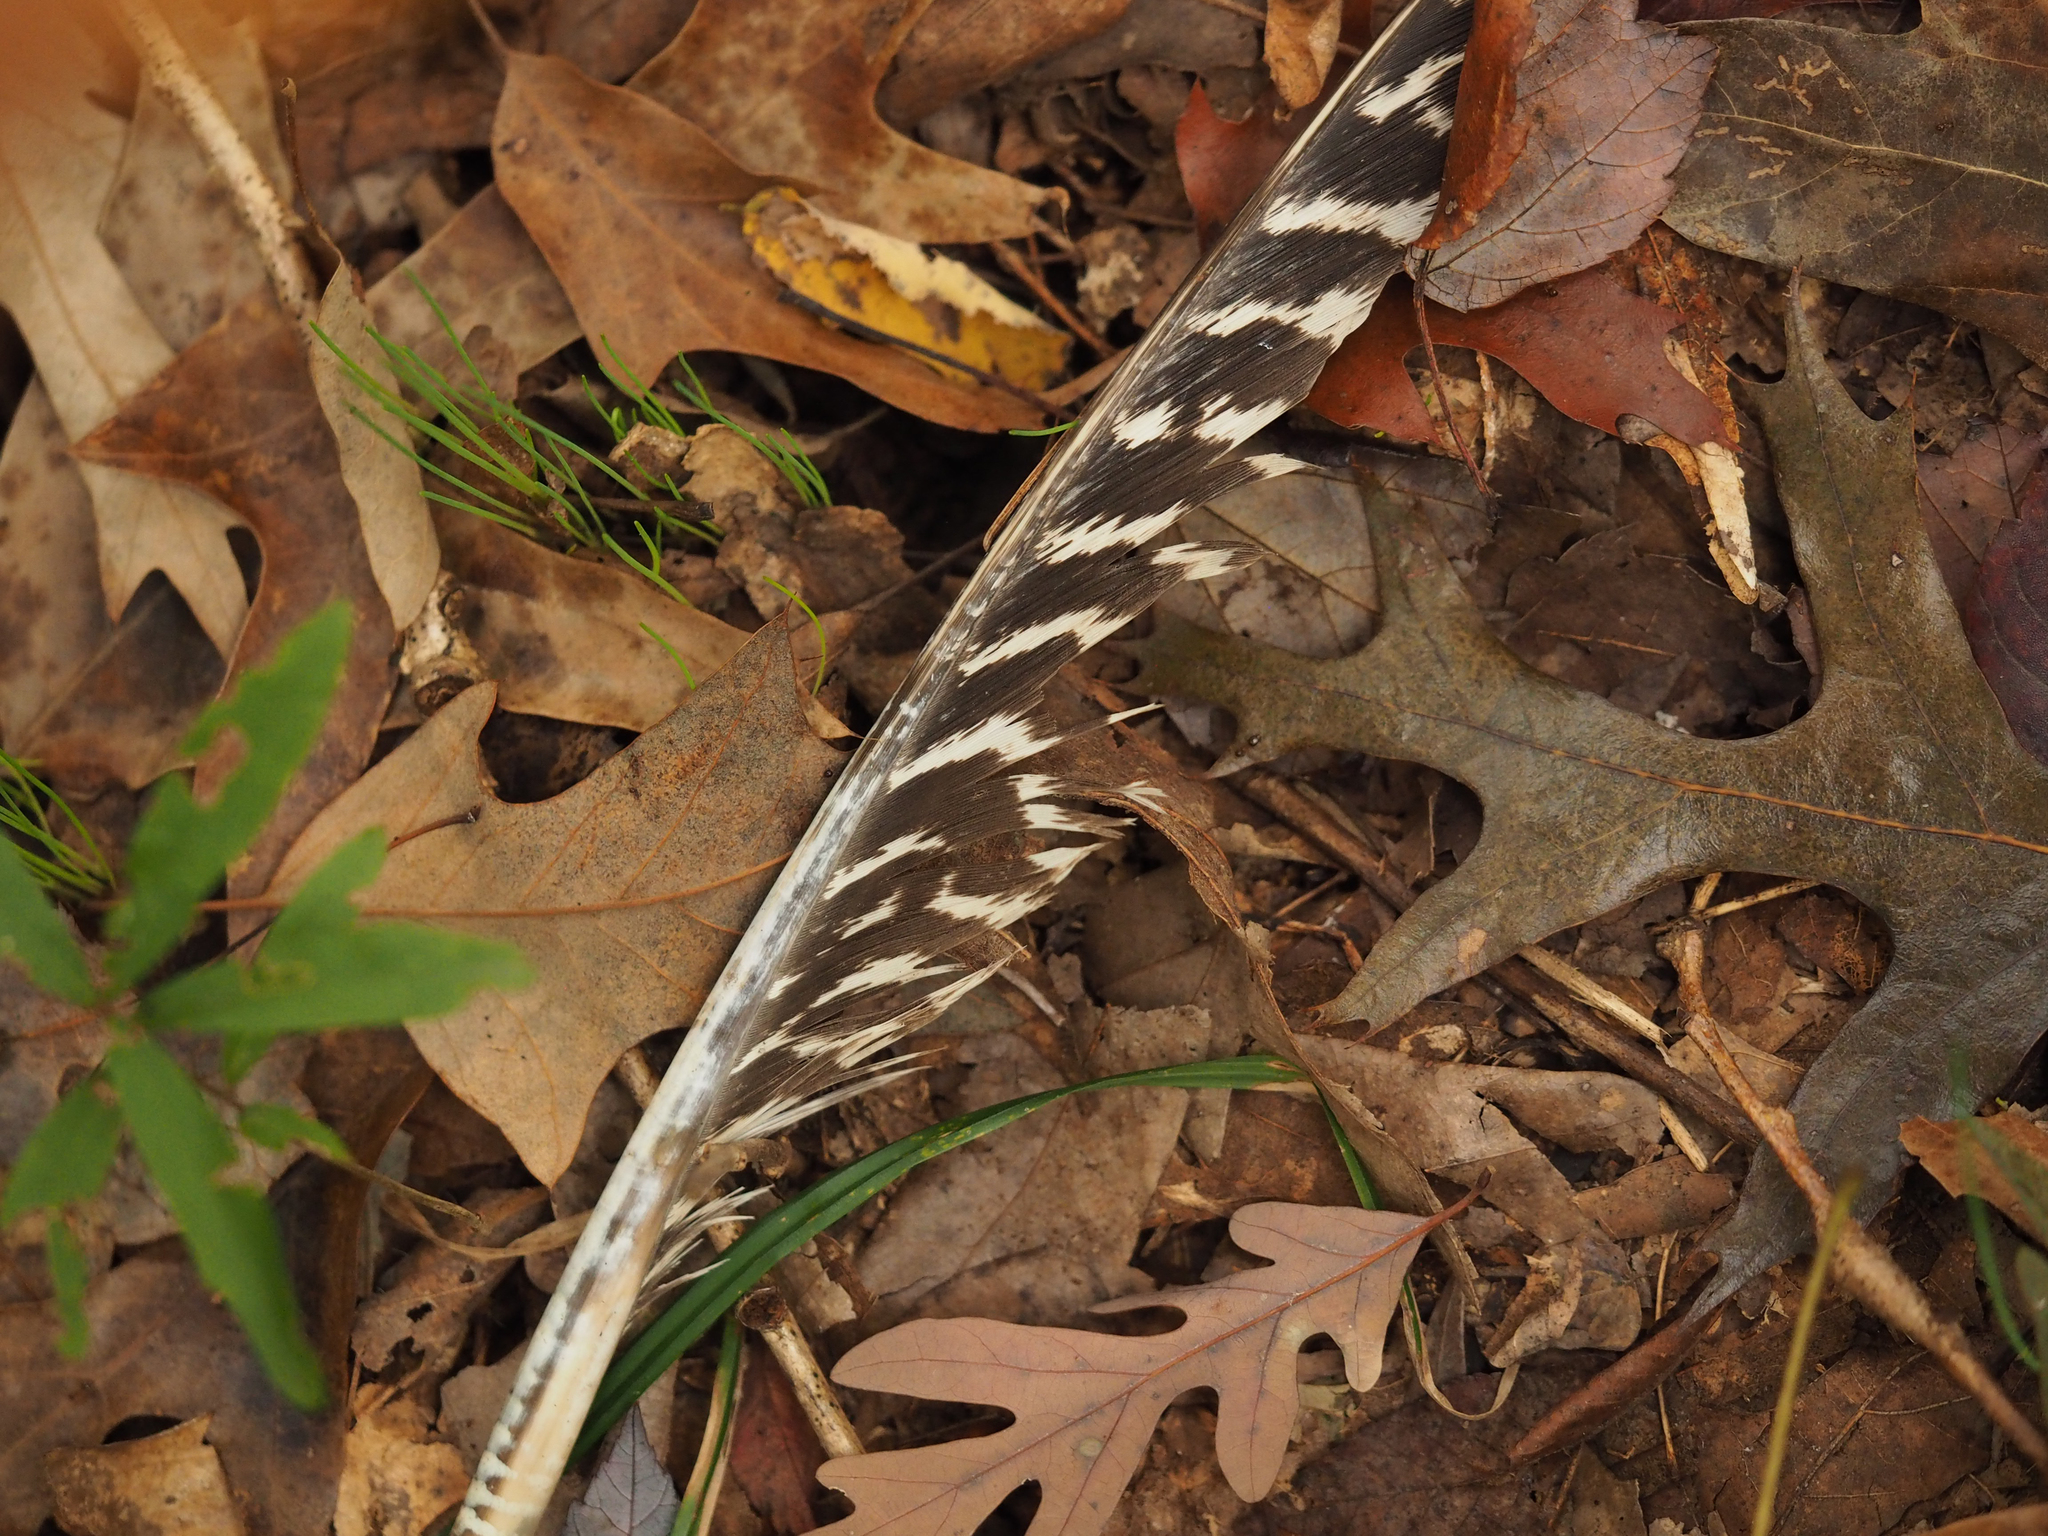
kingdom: Animalia
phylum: Chordata
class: Aves
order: Galliformes
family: Phasianidae
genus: Meleagris
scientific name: Meleagris gallopavo
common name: Wild turkey
